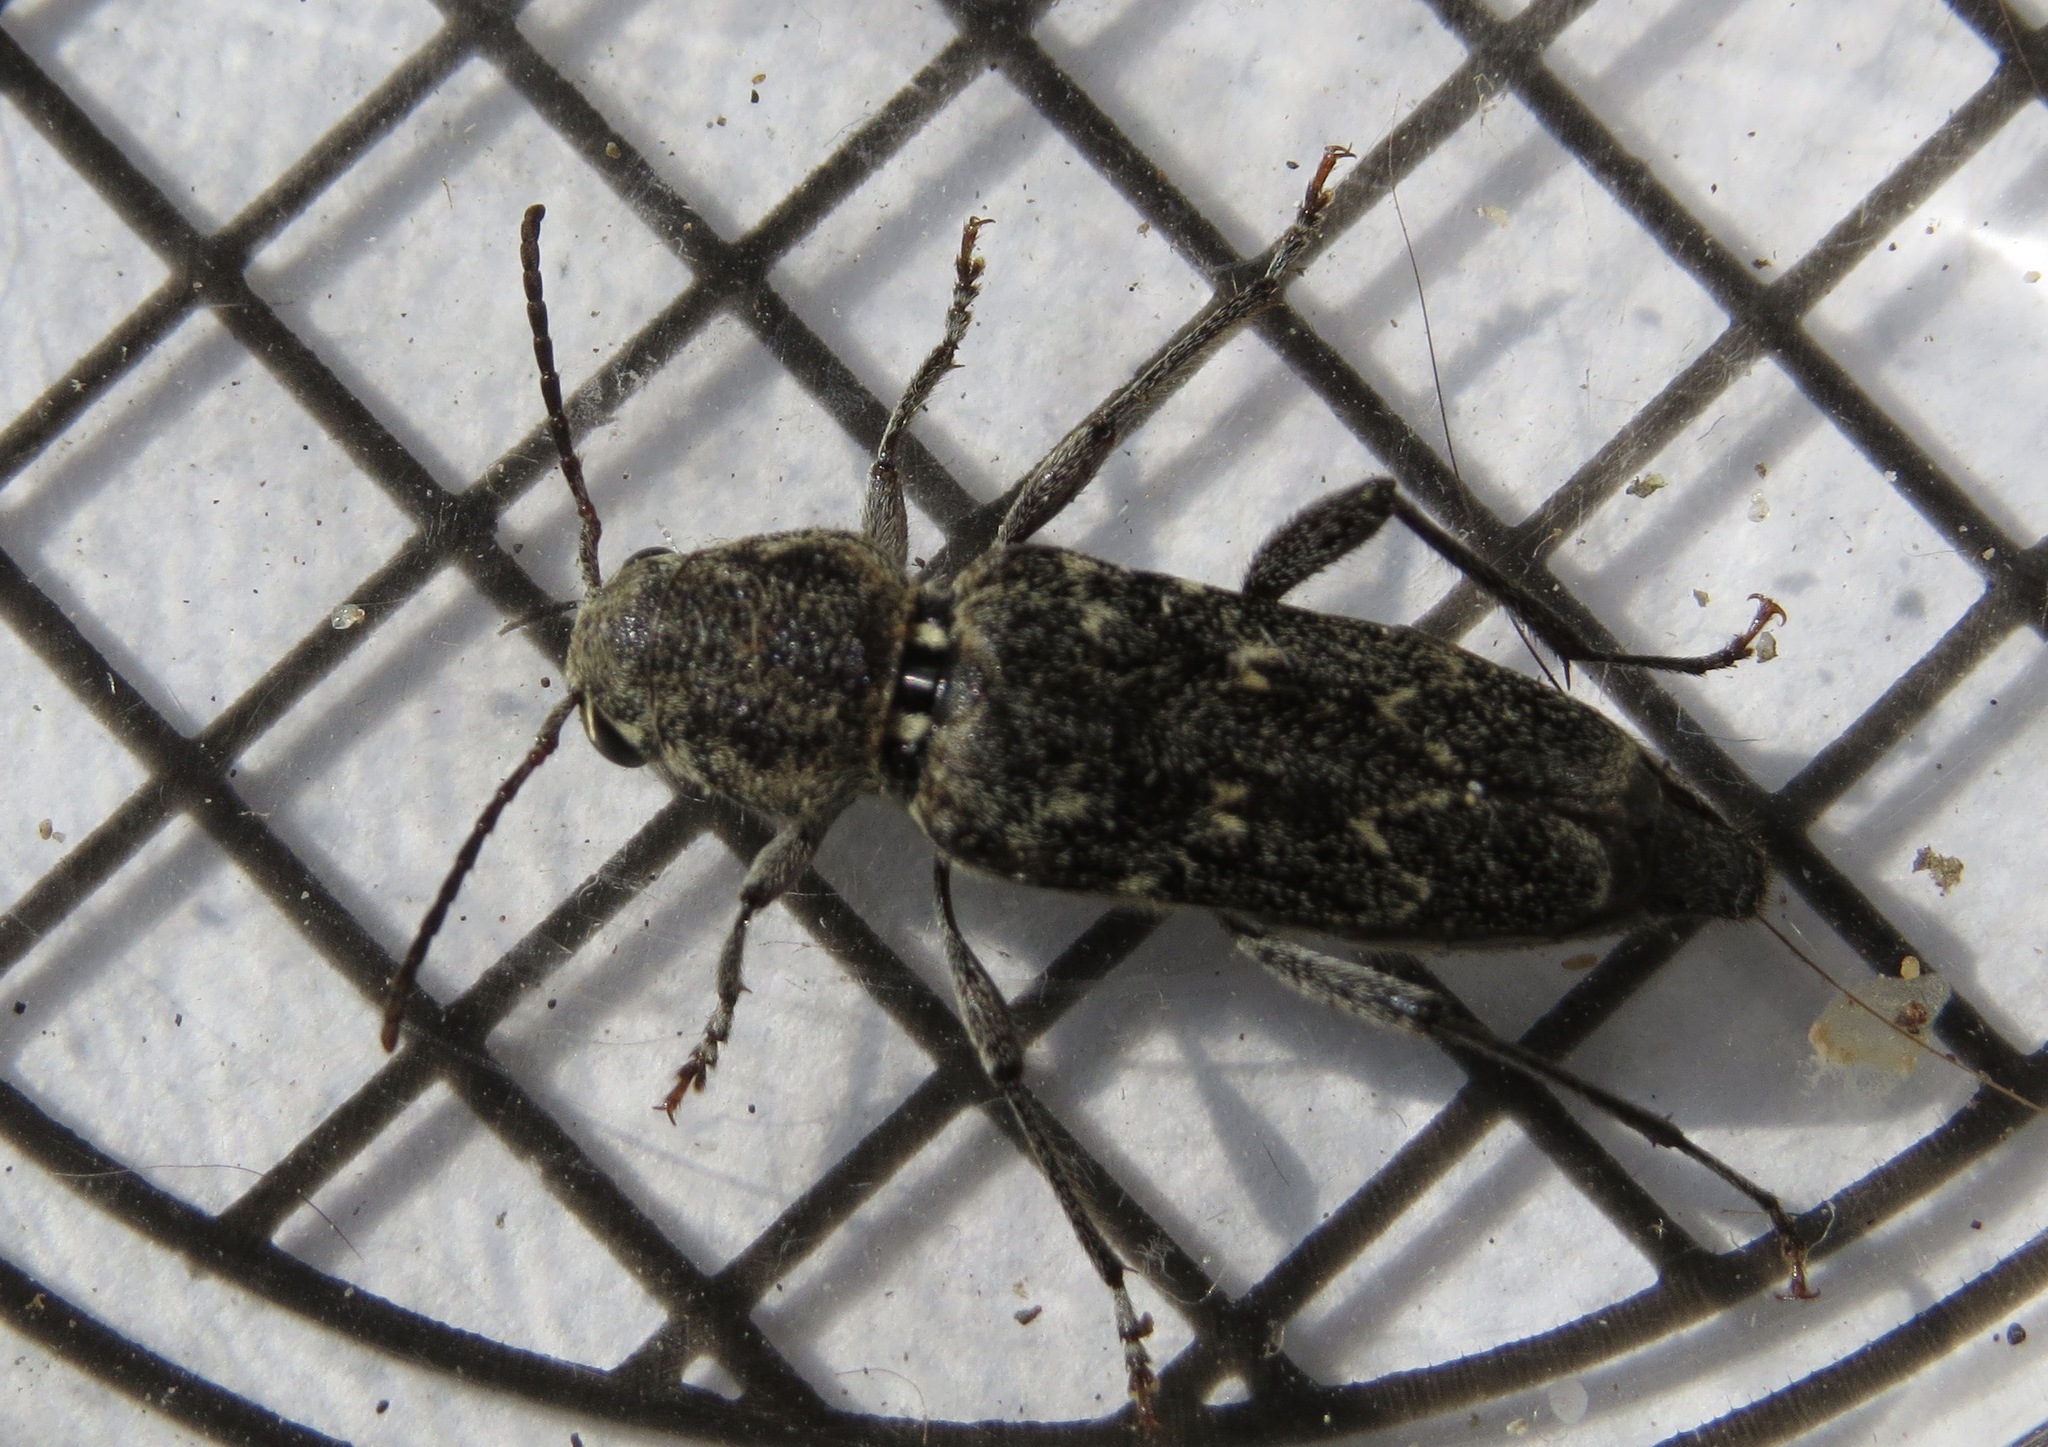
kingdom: Animalia
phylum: Arthropoda
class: Insecta
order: Coleoptera
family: Cerambycidae
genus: Xylotrechus
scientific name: Xylotrechus nauticus
